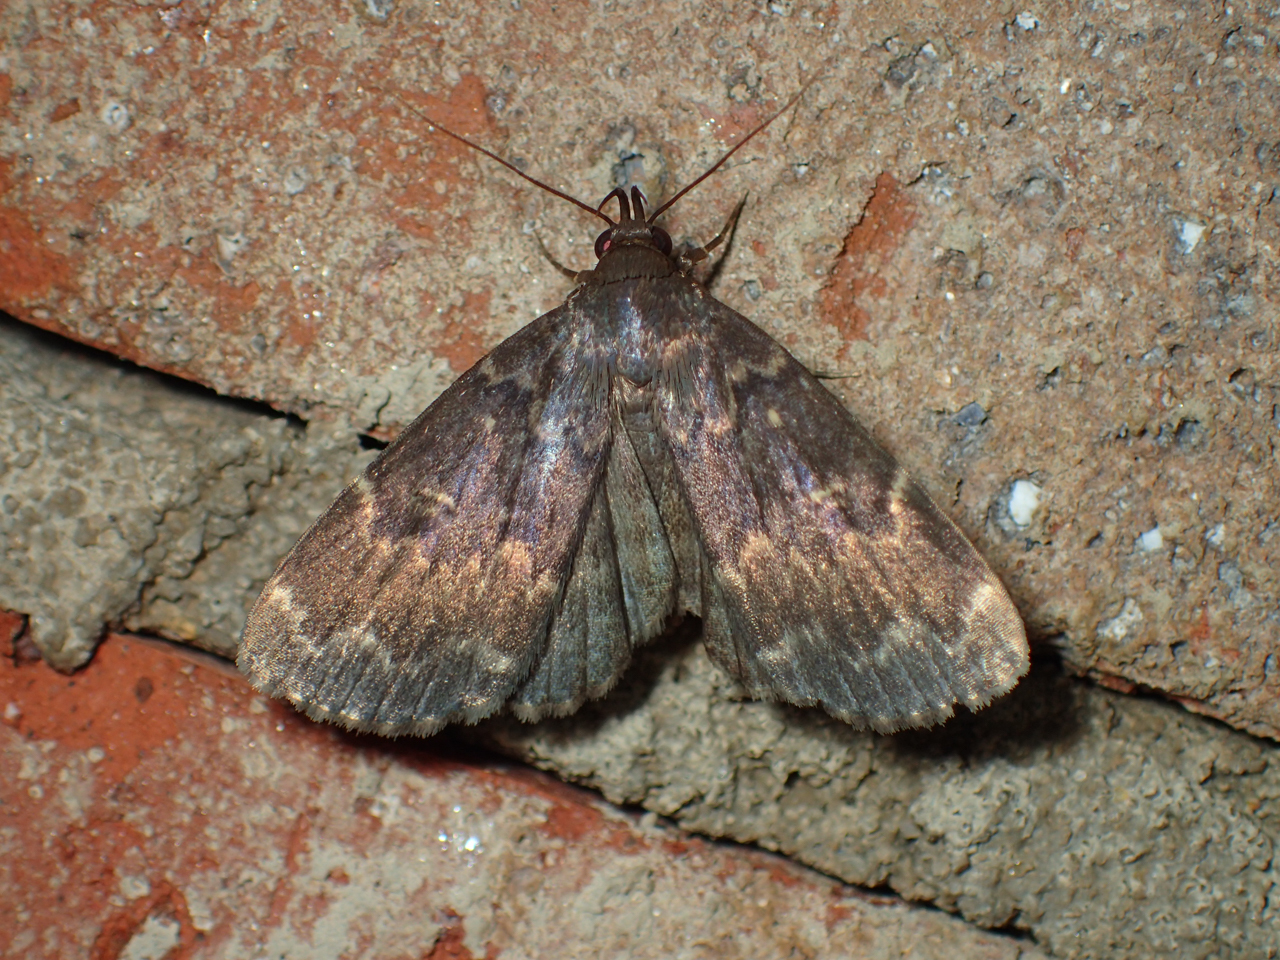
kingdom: Animalia
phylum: Arthropoda
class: Insecta
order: Lepidoptera
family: Erebidae
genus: Idia
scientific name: Idia lubricalis
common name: Twin-striped tabby
